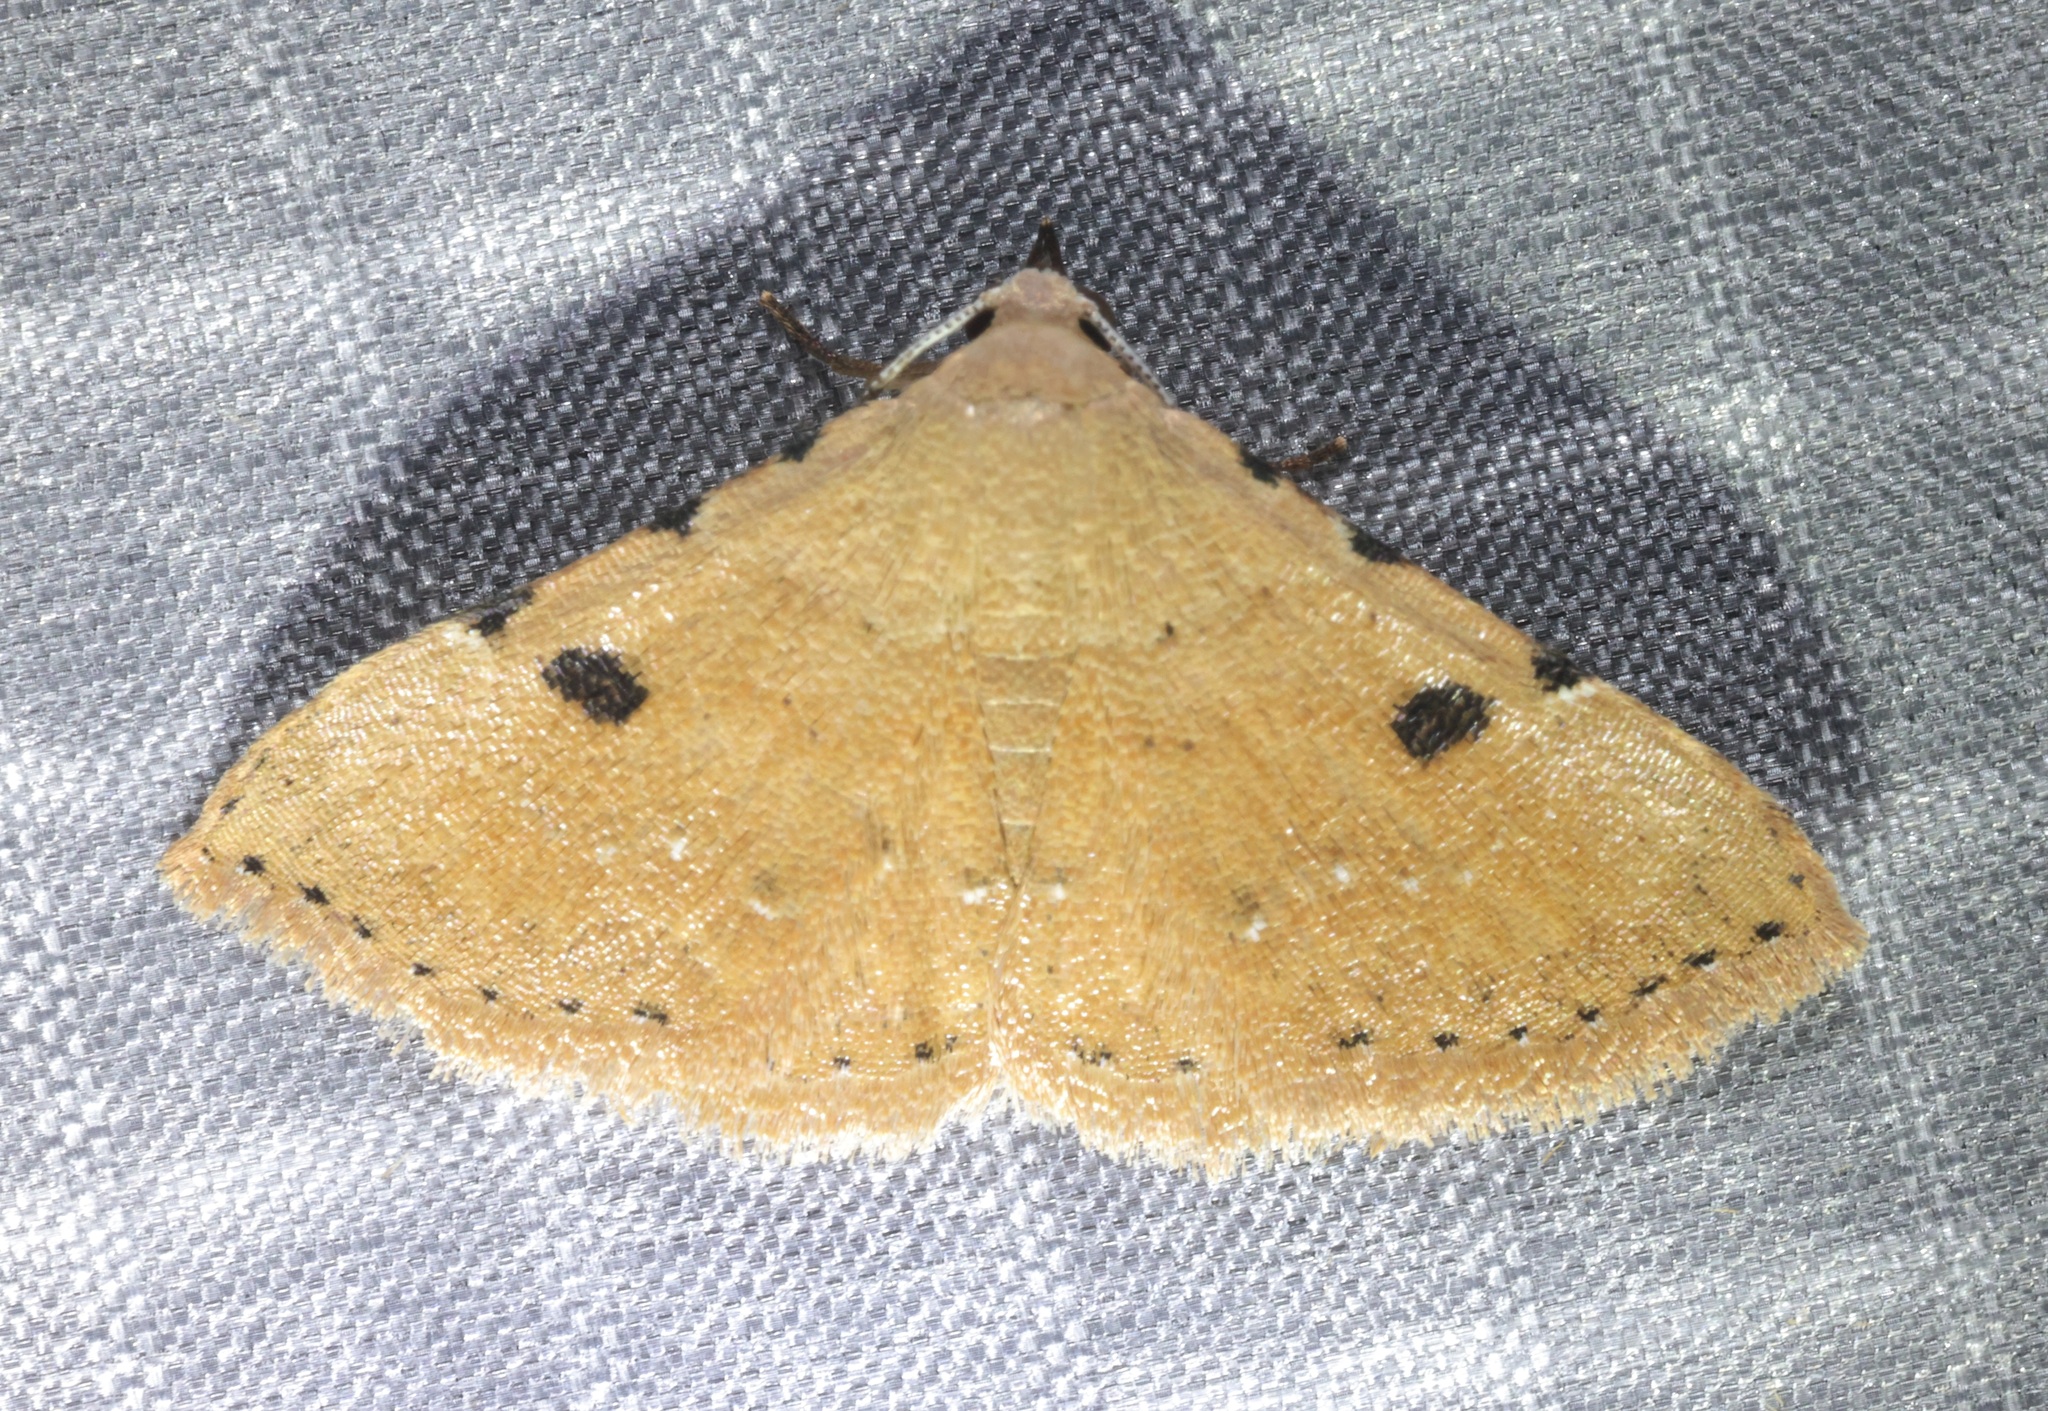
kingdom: Animalia
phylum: Arthropoda
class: Insecta
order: Lepidoptera
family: Erebidae
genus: Corgatha
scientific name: Corgatha trichogyia
